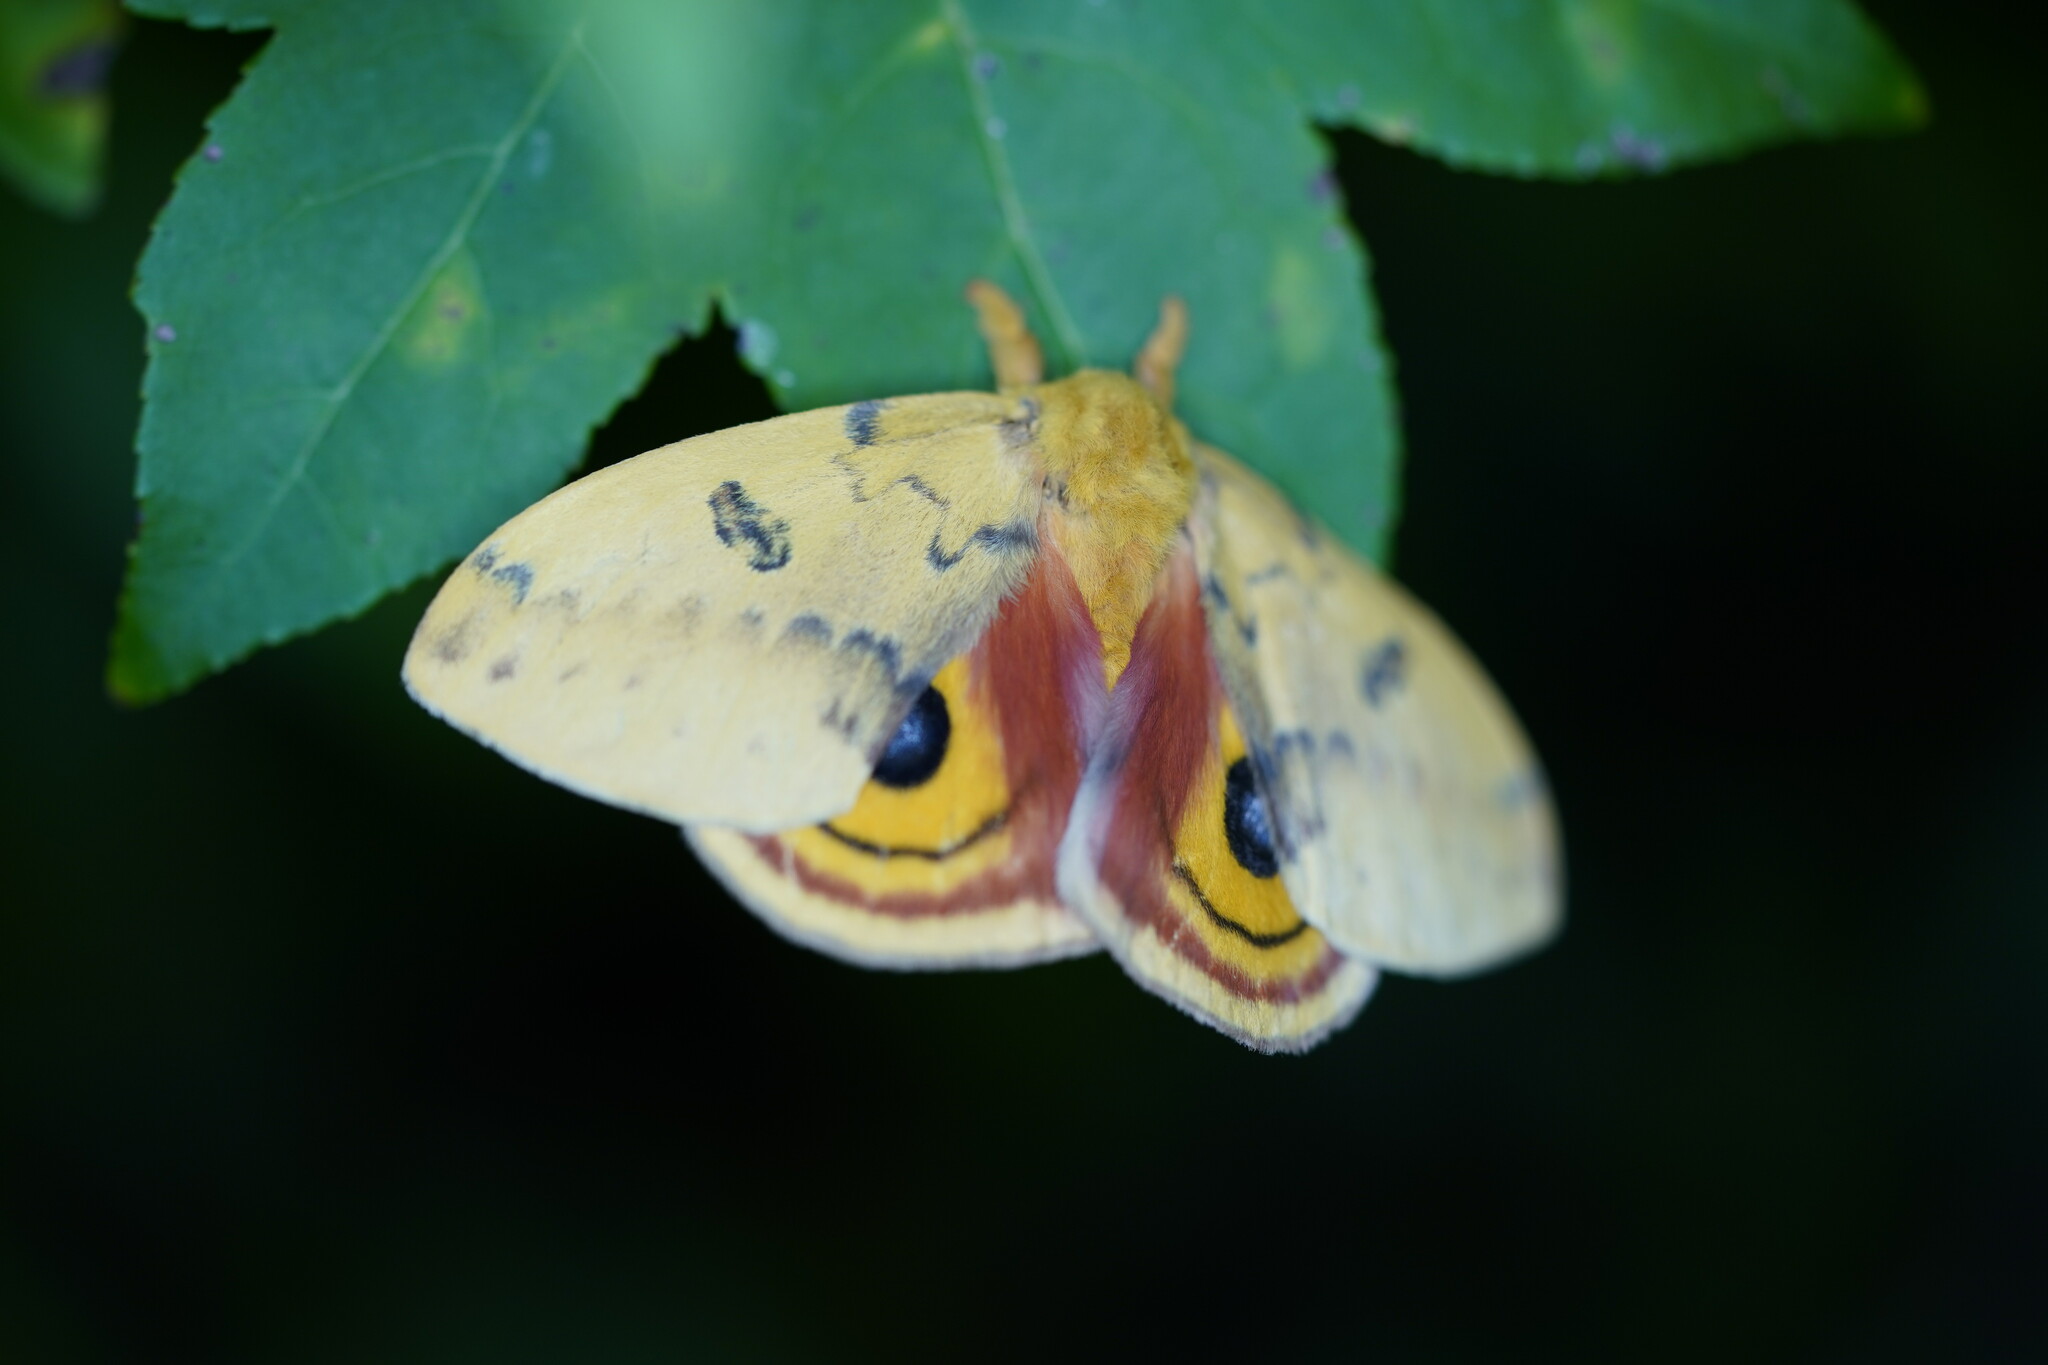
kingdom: Animalia
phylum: Arthropoda
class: Insecta
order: Lepidoptera
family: Saturniidae
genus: Automeris
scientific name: Automeris io
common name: Io moth
